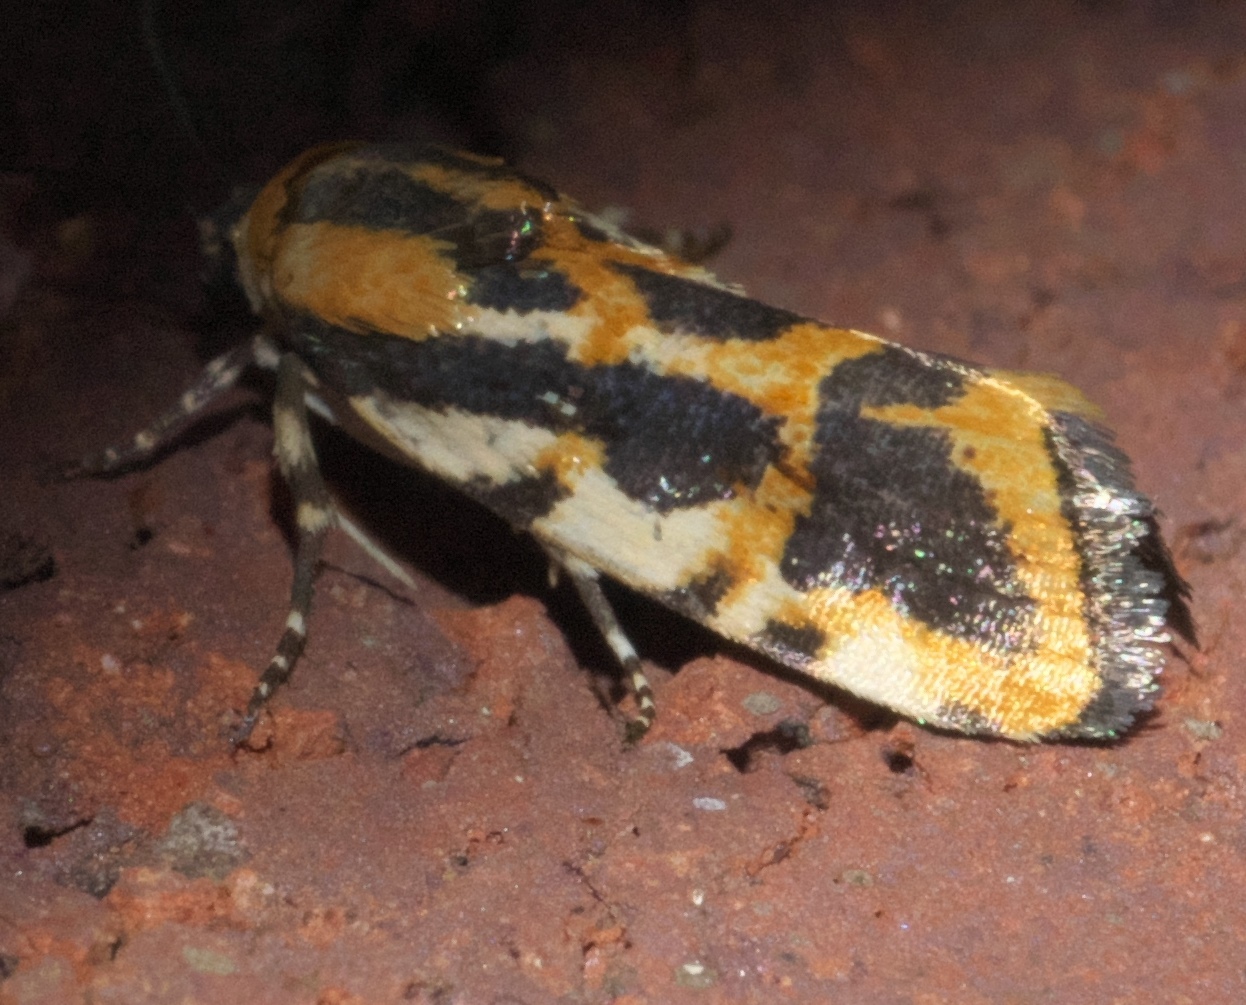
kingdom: Animalia
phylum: Arthropoda
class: Insecta
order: Lepidoptera
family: Noctuidae
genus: Acontia
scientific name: Acontia leo
